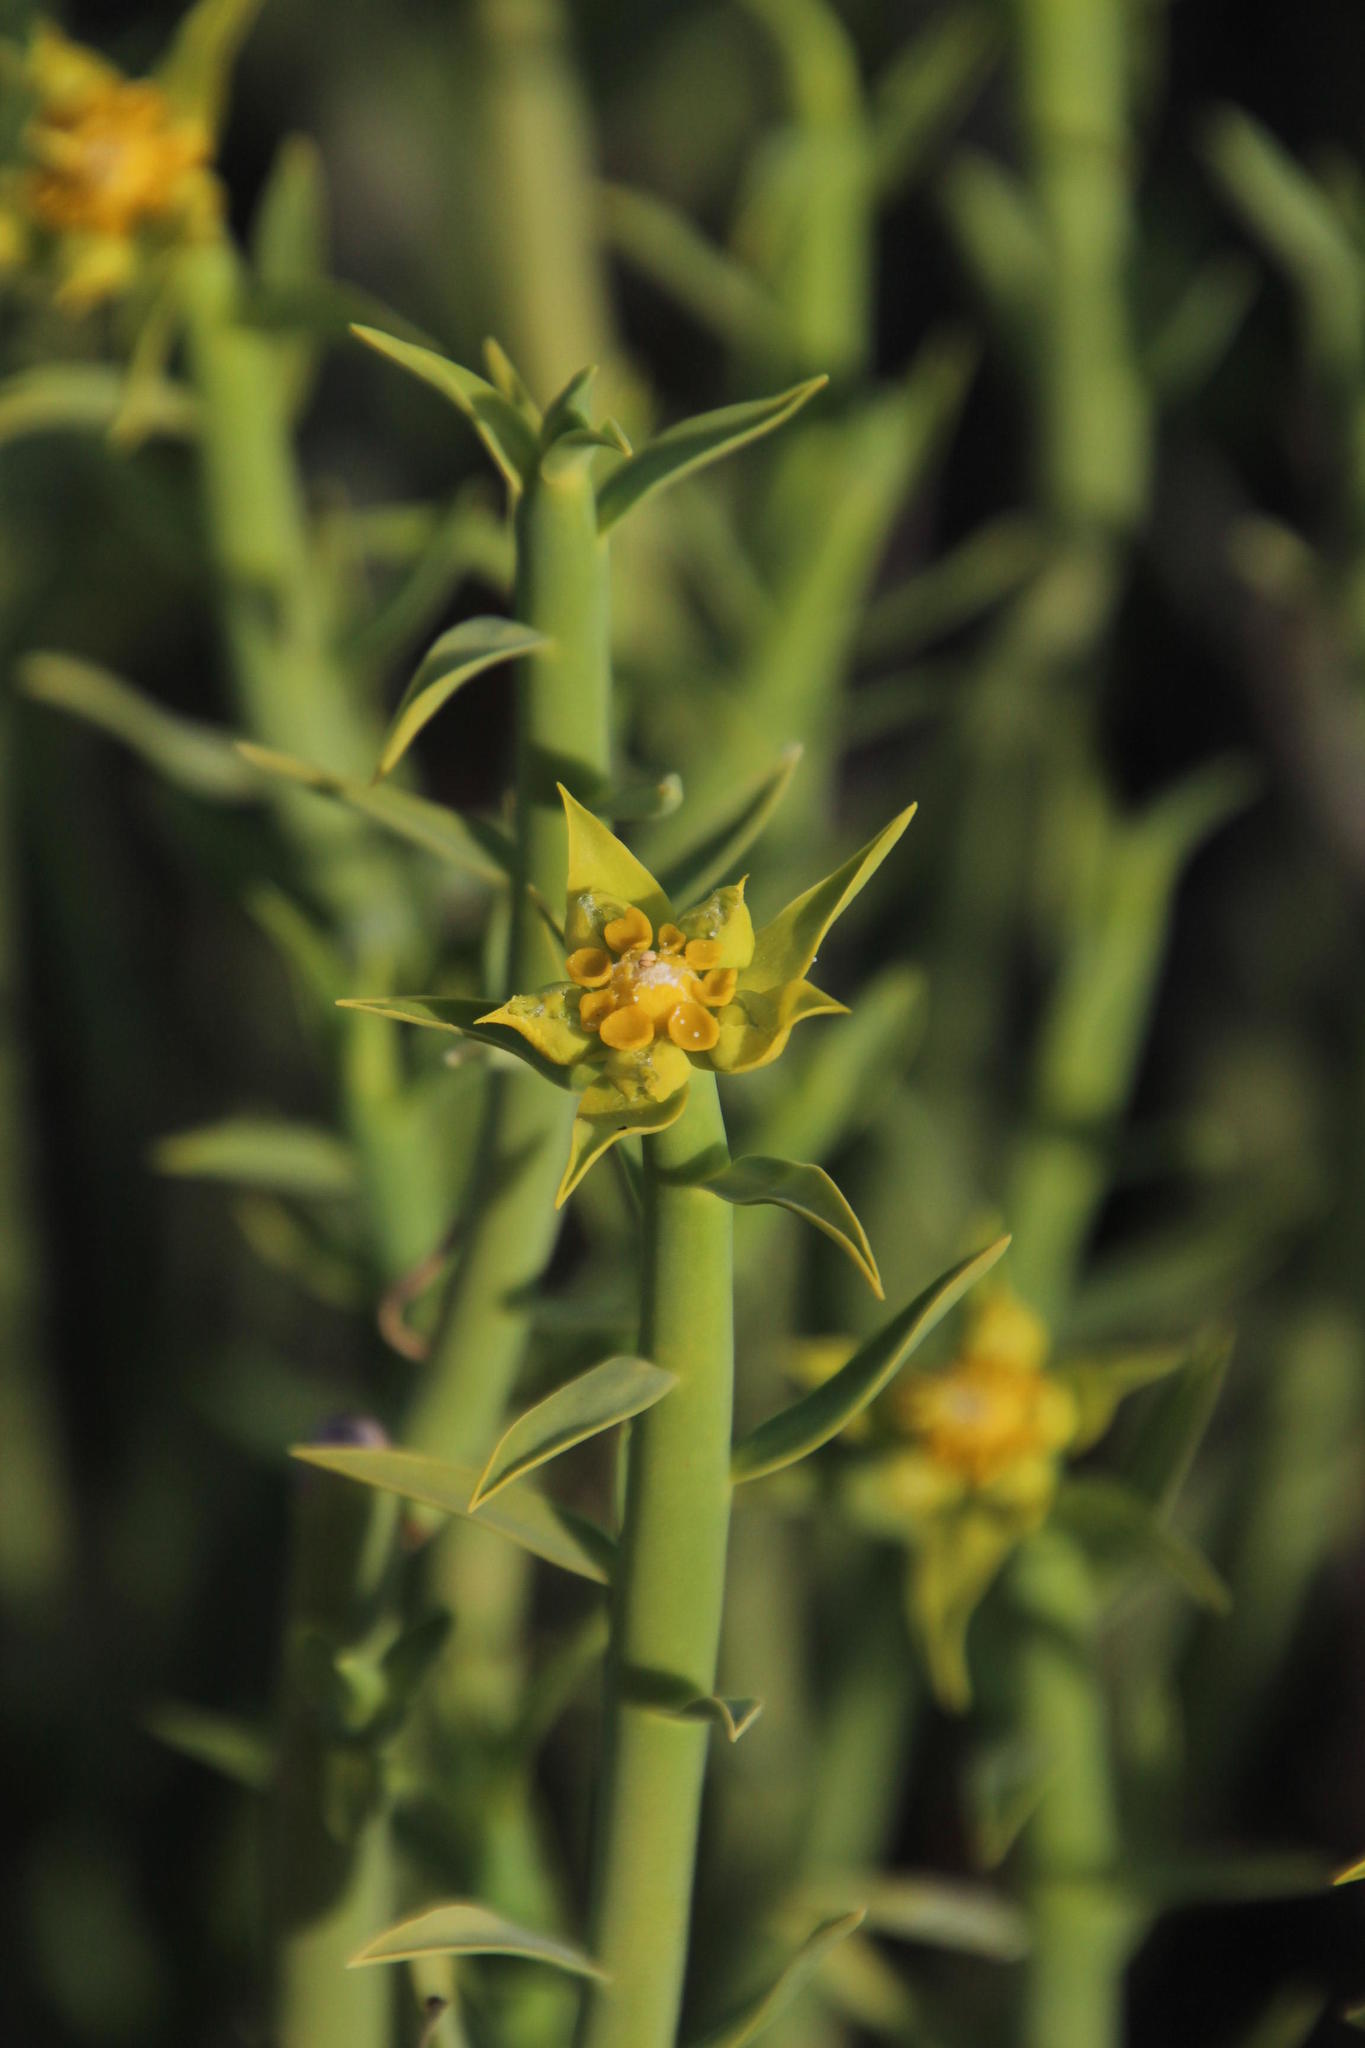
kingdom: Plantae
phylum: Tracheophyta
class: Magnoliopsida
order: Malpighiales
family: Euphorbiaceae
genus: Euphorbia
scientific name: Euphorbia mauritanica
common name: Jackal's-food
